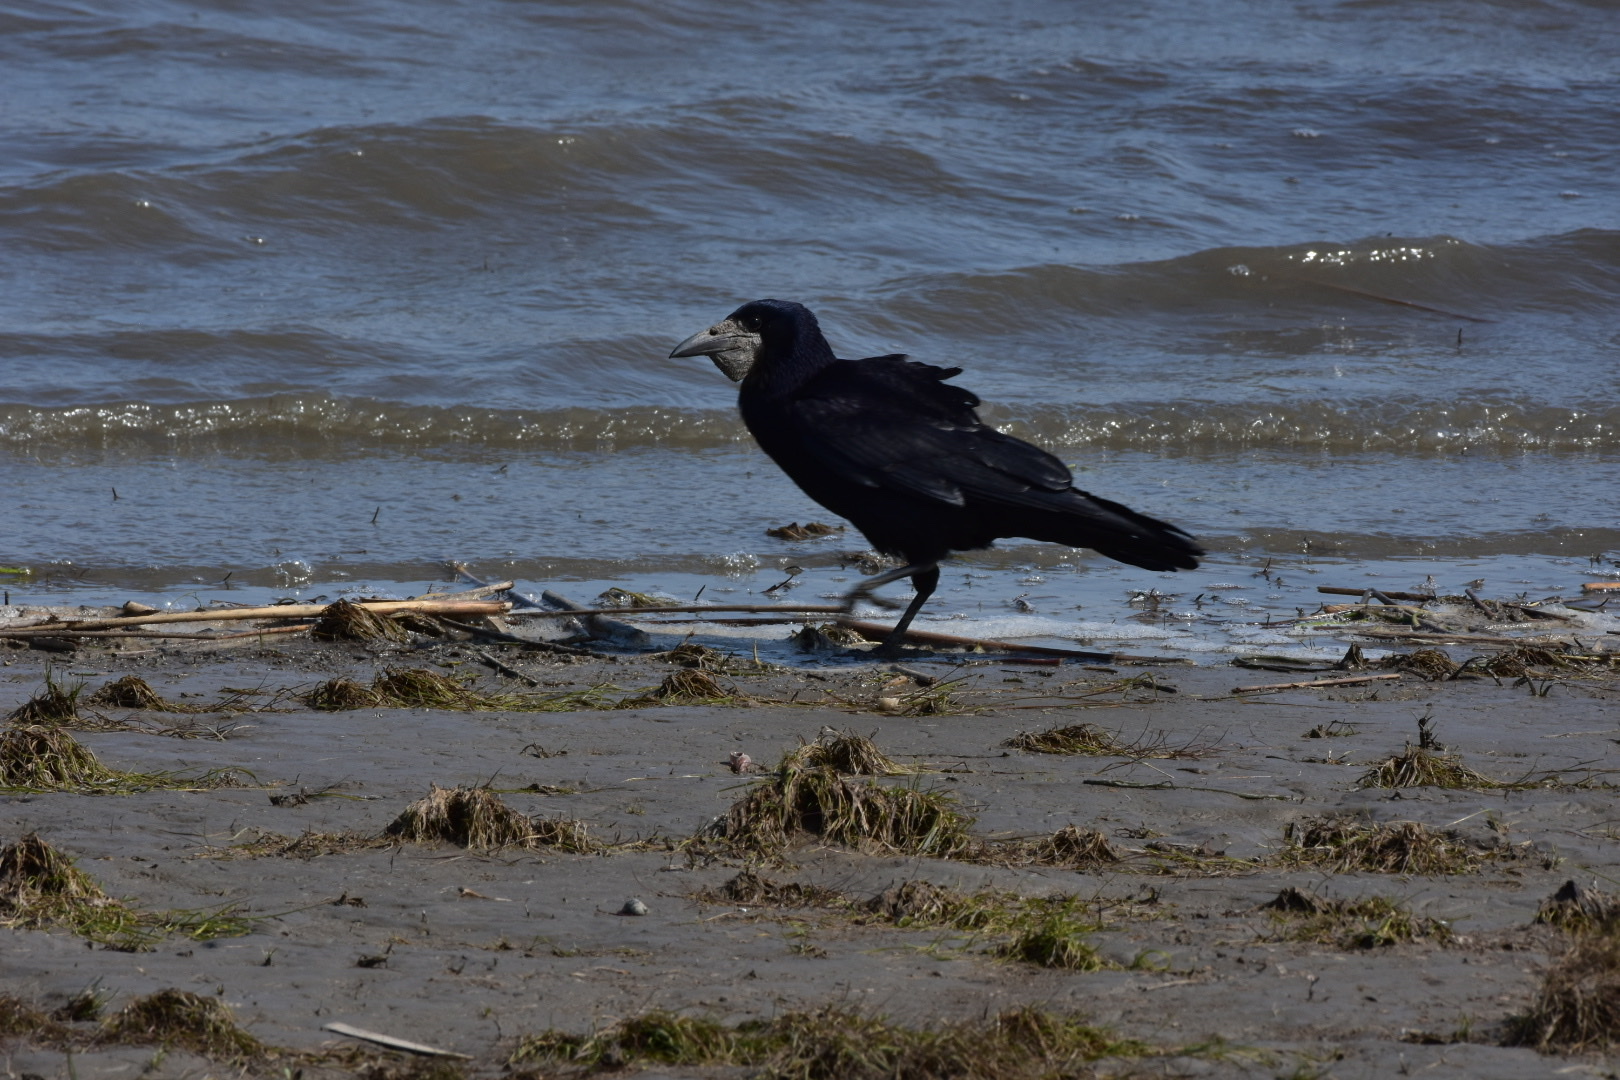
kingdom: Animalia
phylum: Chordata
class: Aves
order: Passeriformes
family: Corvidae
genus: Corvus
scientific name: Corvus frugilegus
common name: Rook
